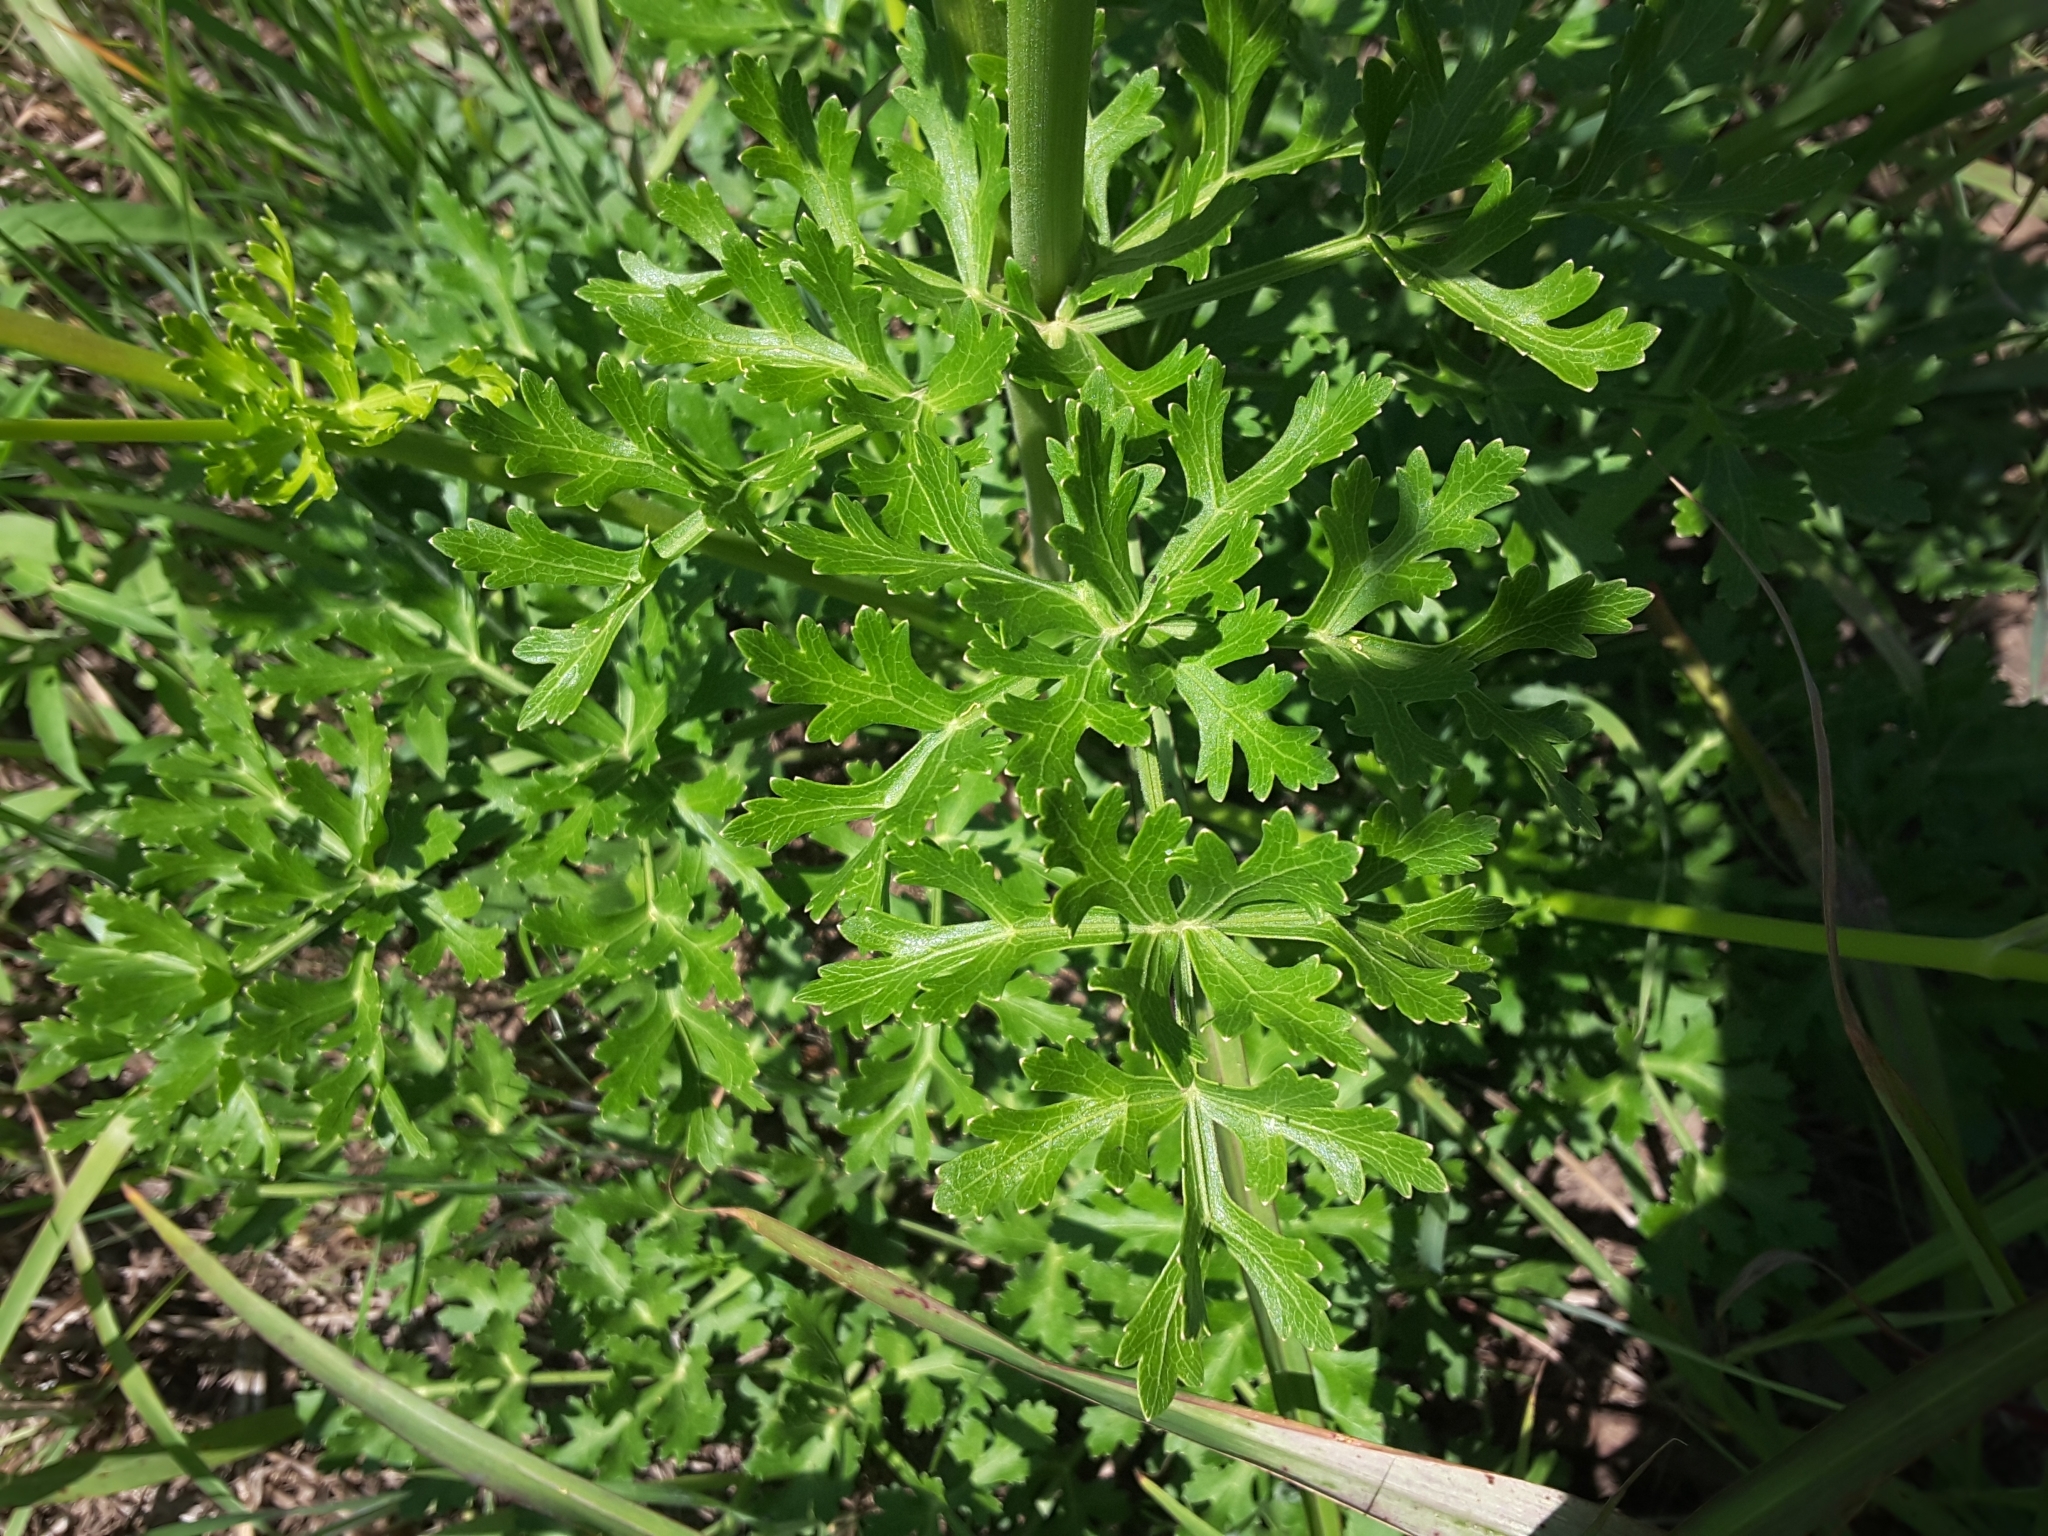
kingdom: Plantae
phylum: Tracheophyta
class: Magnoliopsida
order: Apiales
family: Apiaceae
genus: Polytaenia
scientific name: Polytaenia texana
